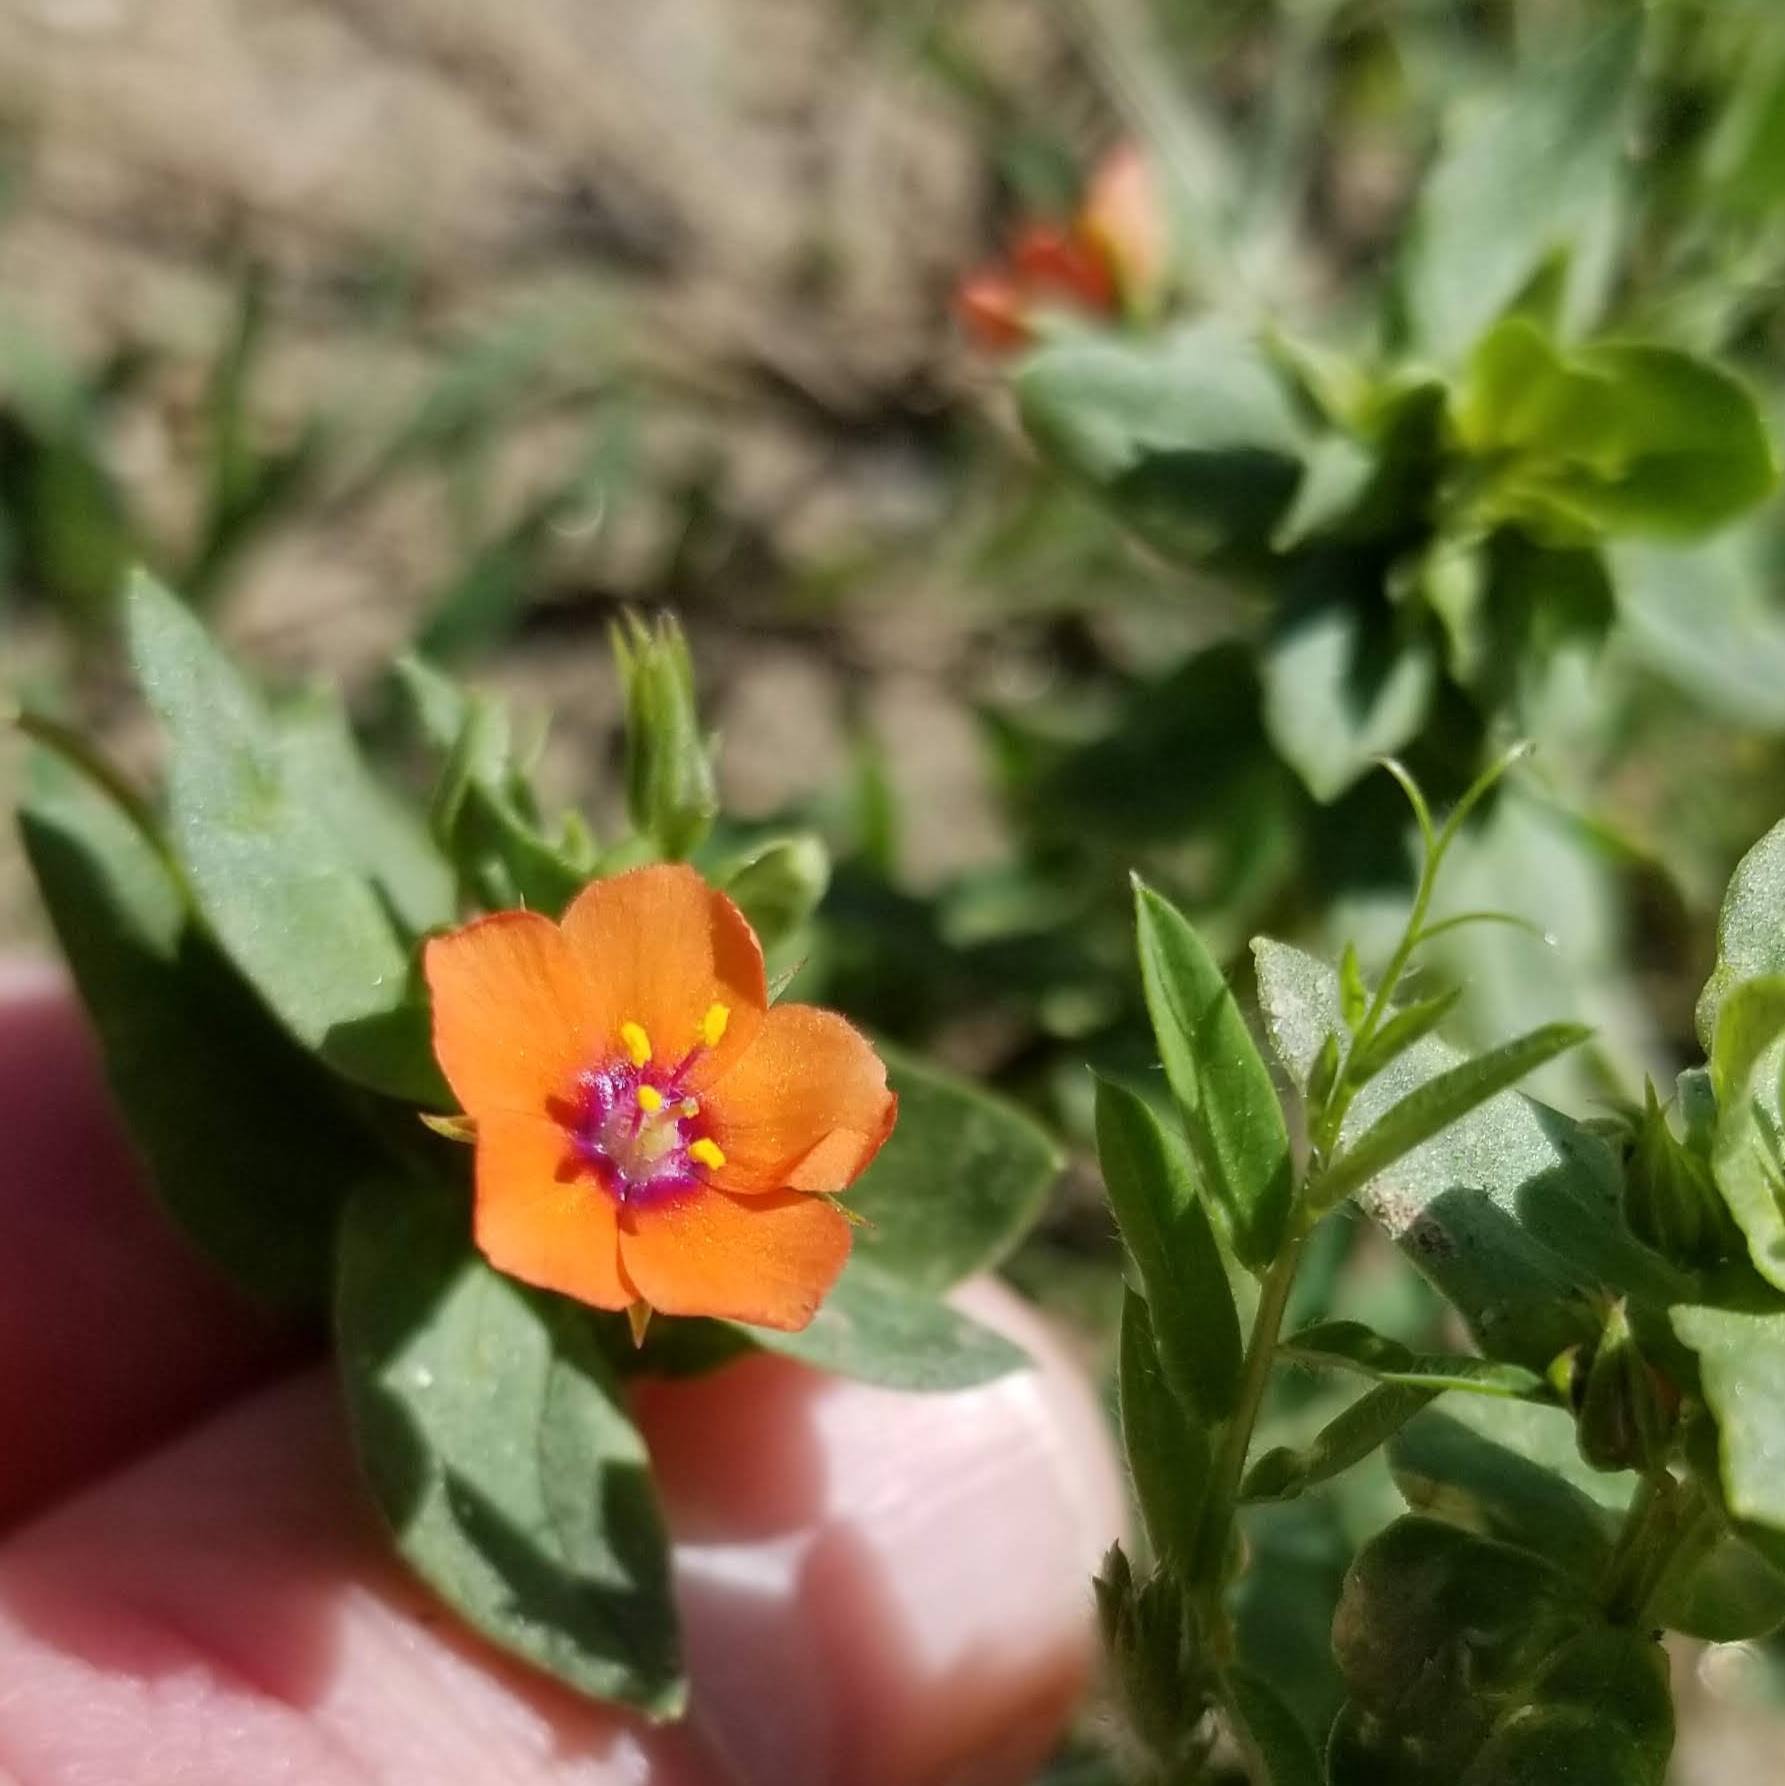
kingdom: Plantae
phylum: Tracheophyta
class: Magnoliopsida
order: Ericales
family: Primulaceae
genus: Lysimachia
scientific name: Lysimachia arvensis
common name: Scarlet pimpernel
